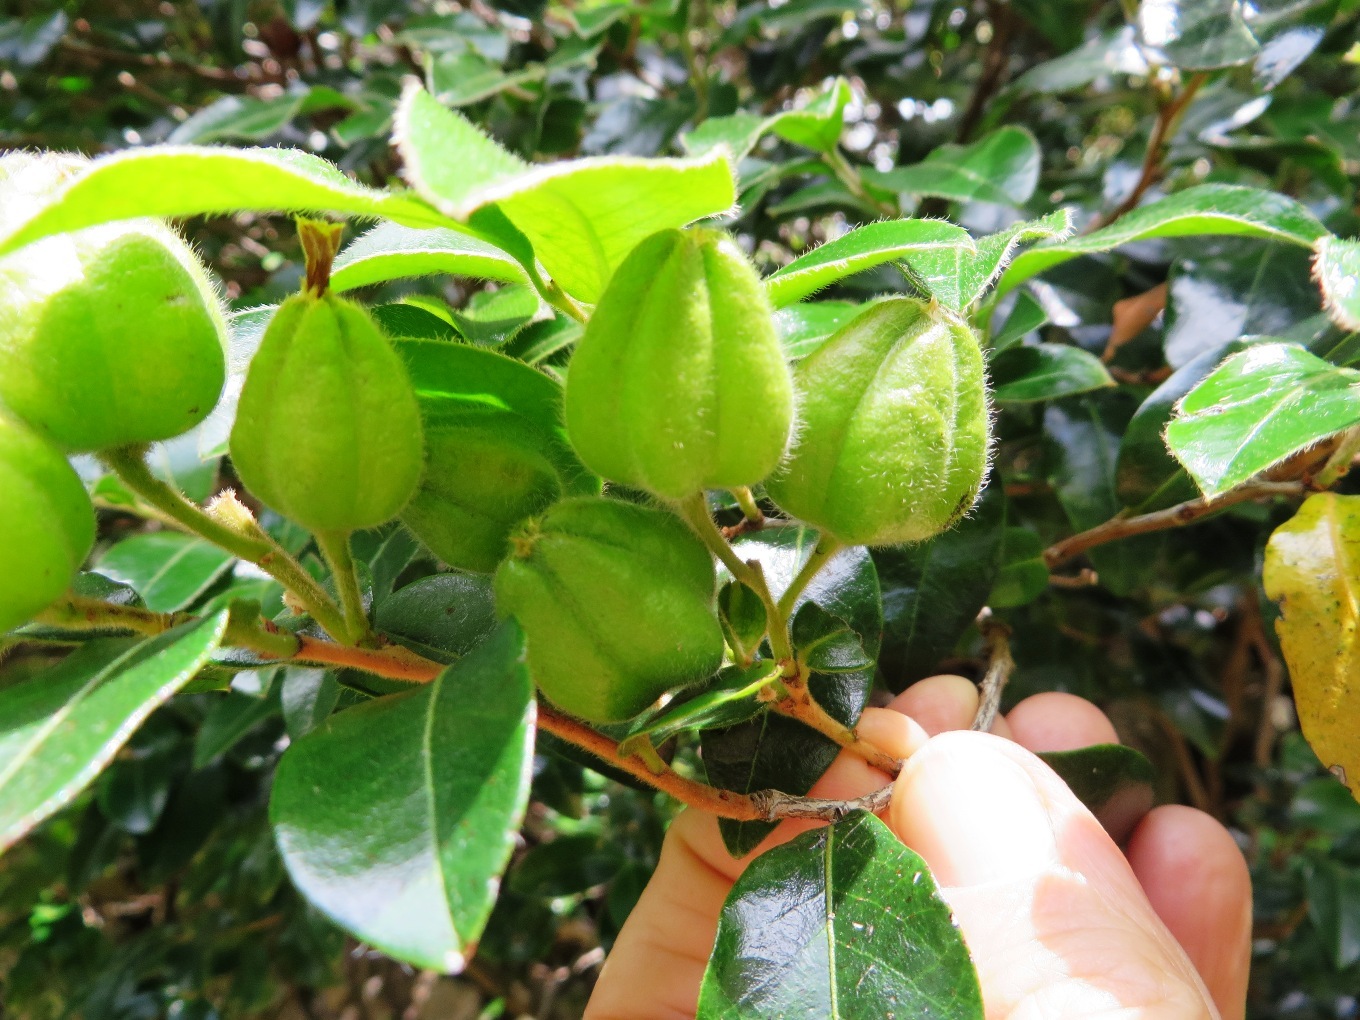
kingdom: Plantae
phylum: Tracheophyta
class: Magnoliopsida
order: Ericales
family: Ebenaceae
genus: Diospyros
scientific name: Diospyros whyteana
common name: Bladder-nut
